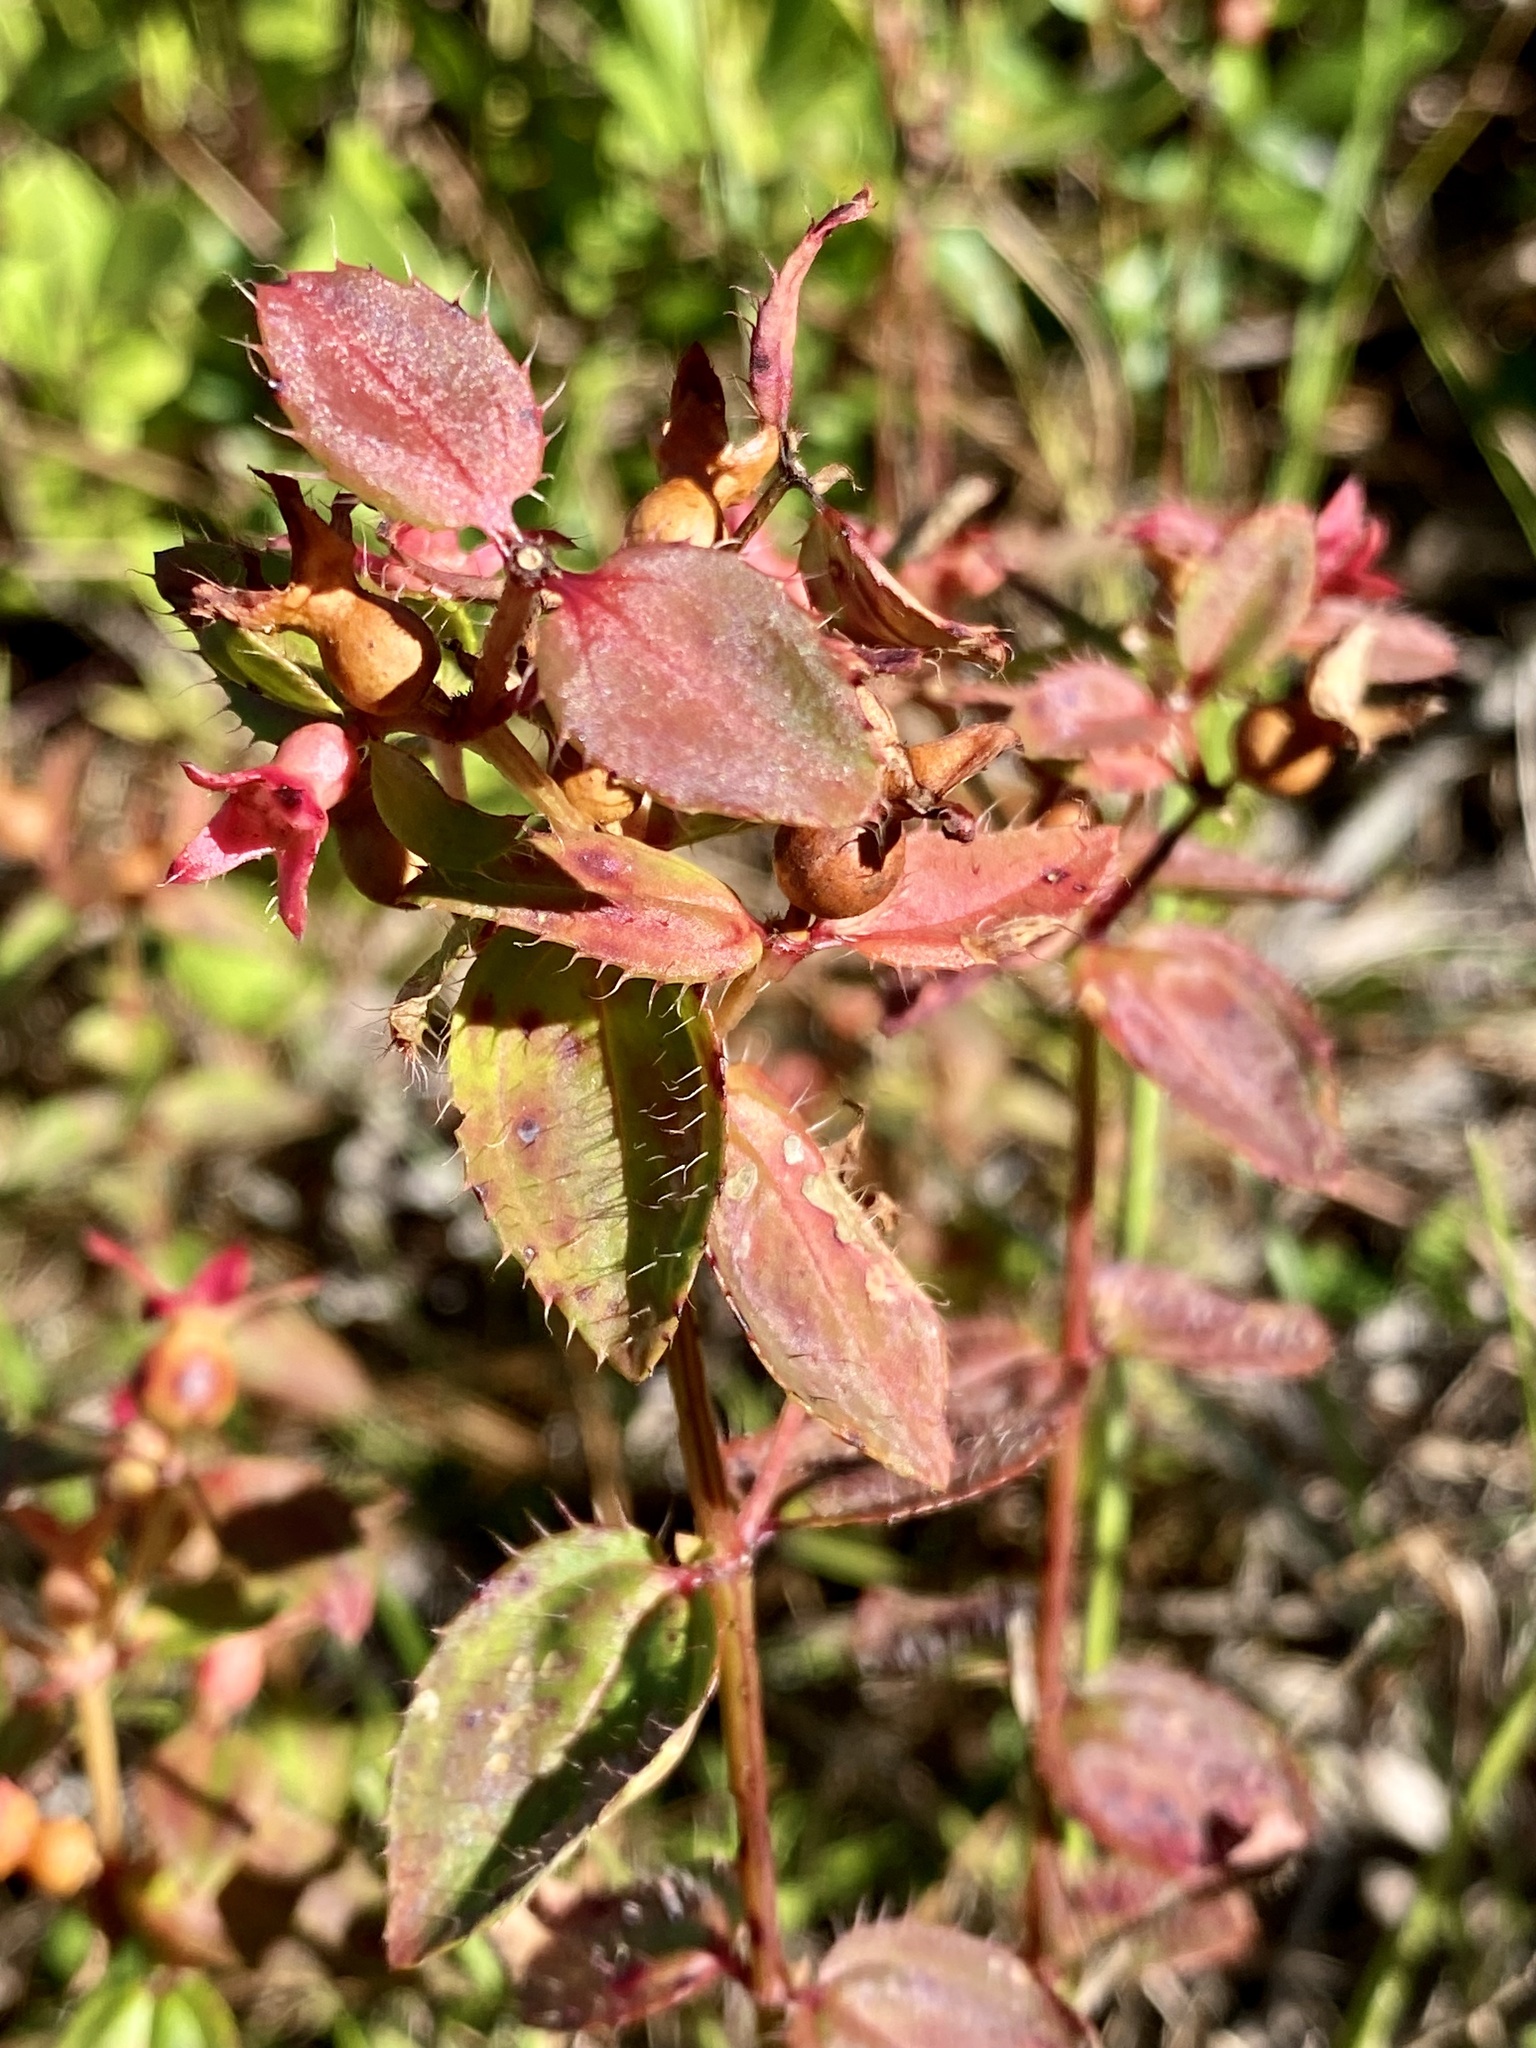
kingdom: Plantae
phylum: Tracheophyta
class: Magnoliopsida
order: Myrtales
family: Melastomataceae
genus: Rhexia
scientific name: Rhexia petiolata
